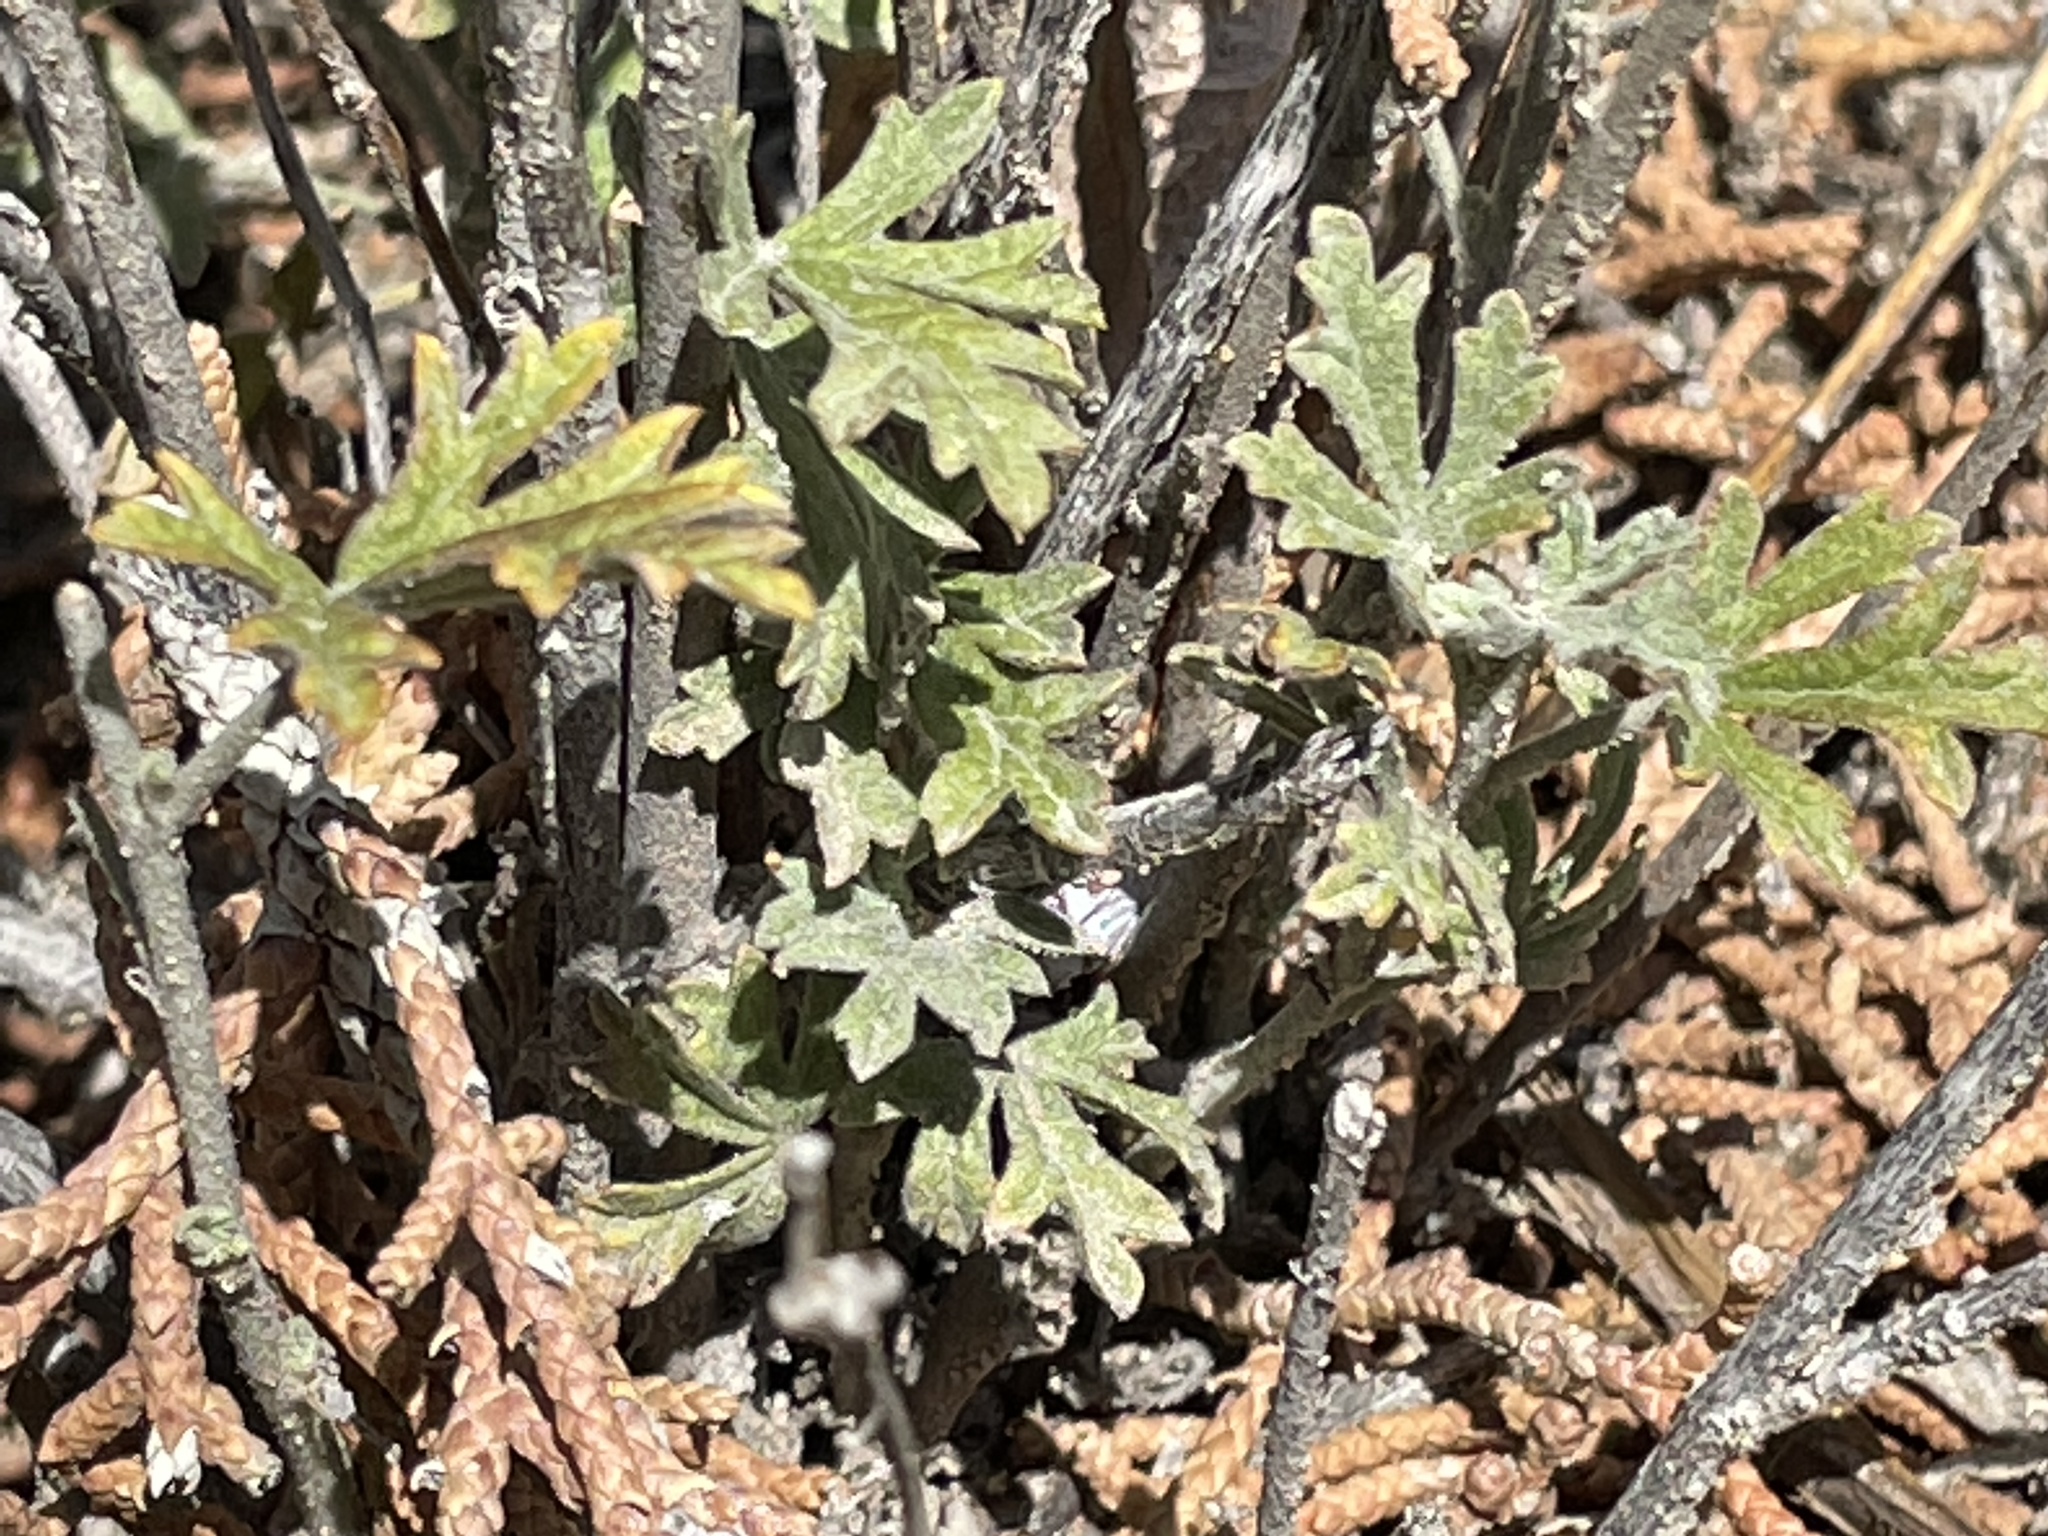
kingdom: Plantae
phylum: Tracheophyta
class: Magnoliopsida
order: Malvales
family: Malvaceae
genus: Sphaeralcea
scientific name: Sphaeralcea fendleri
